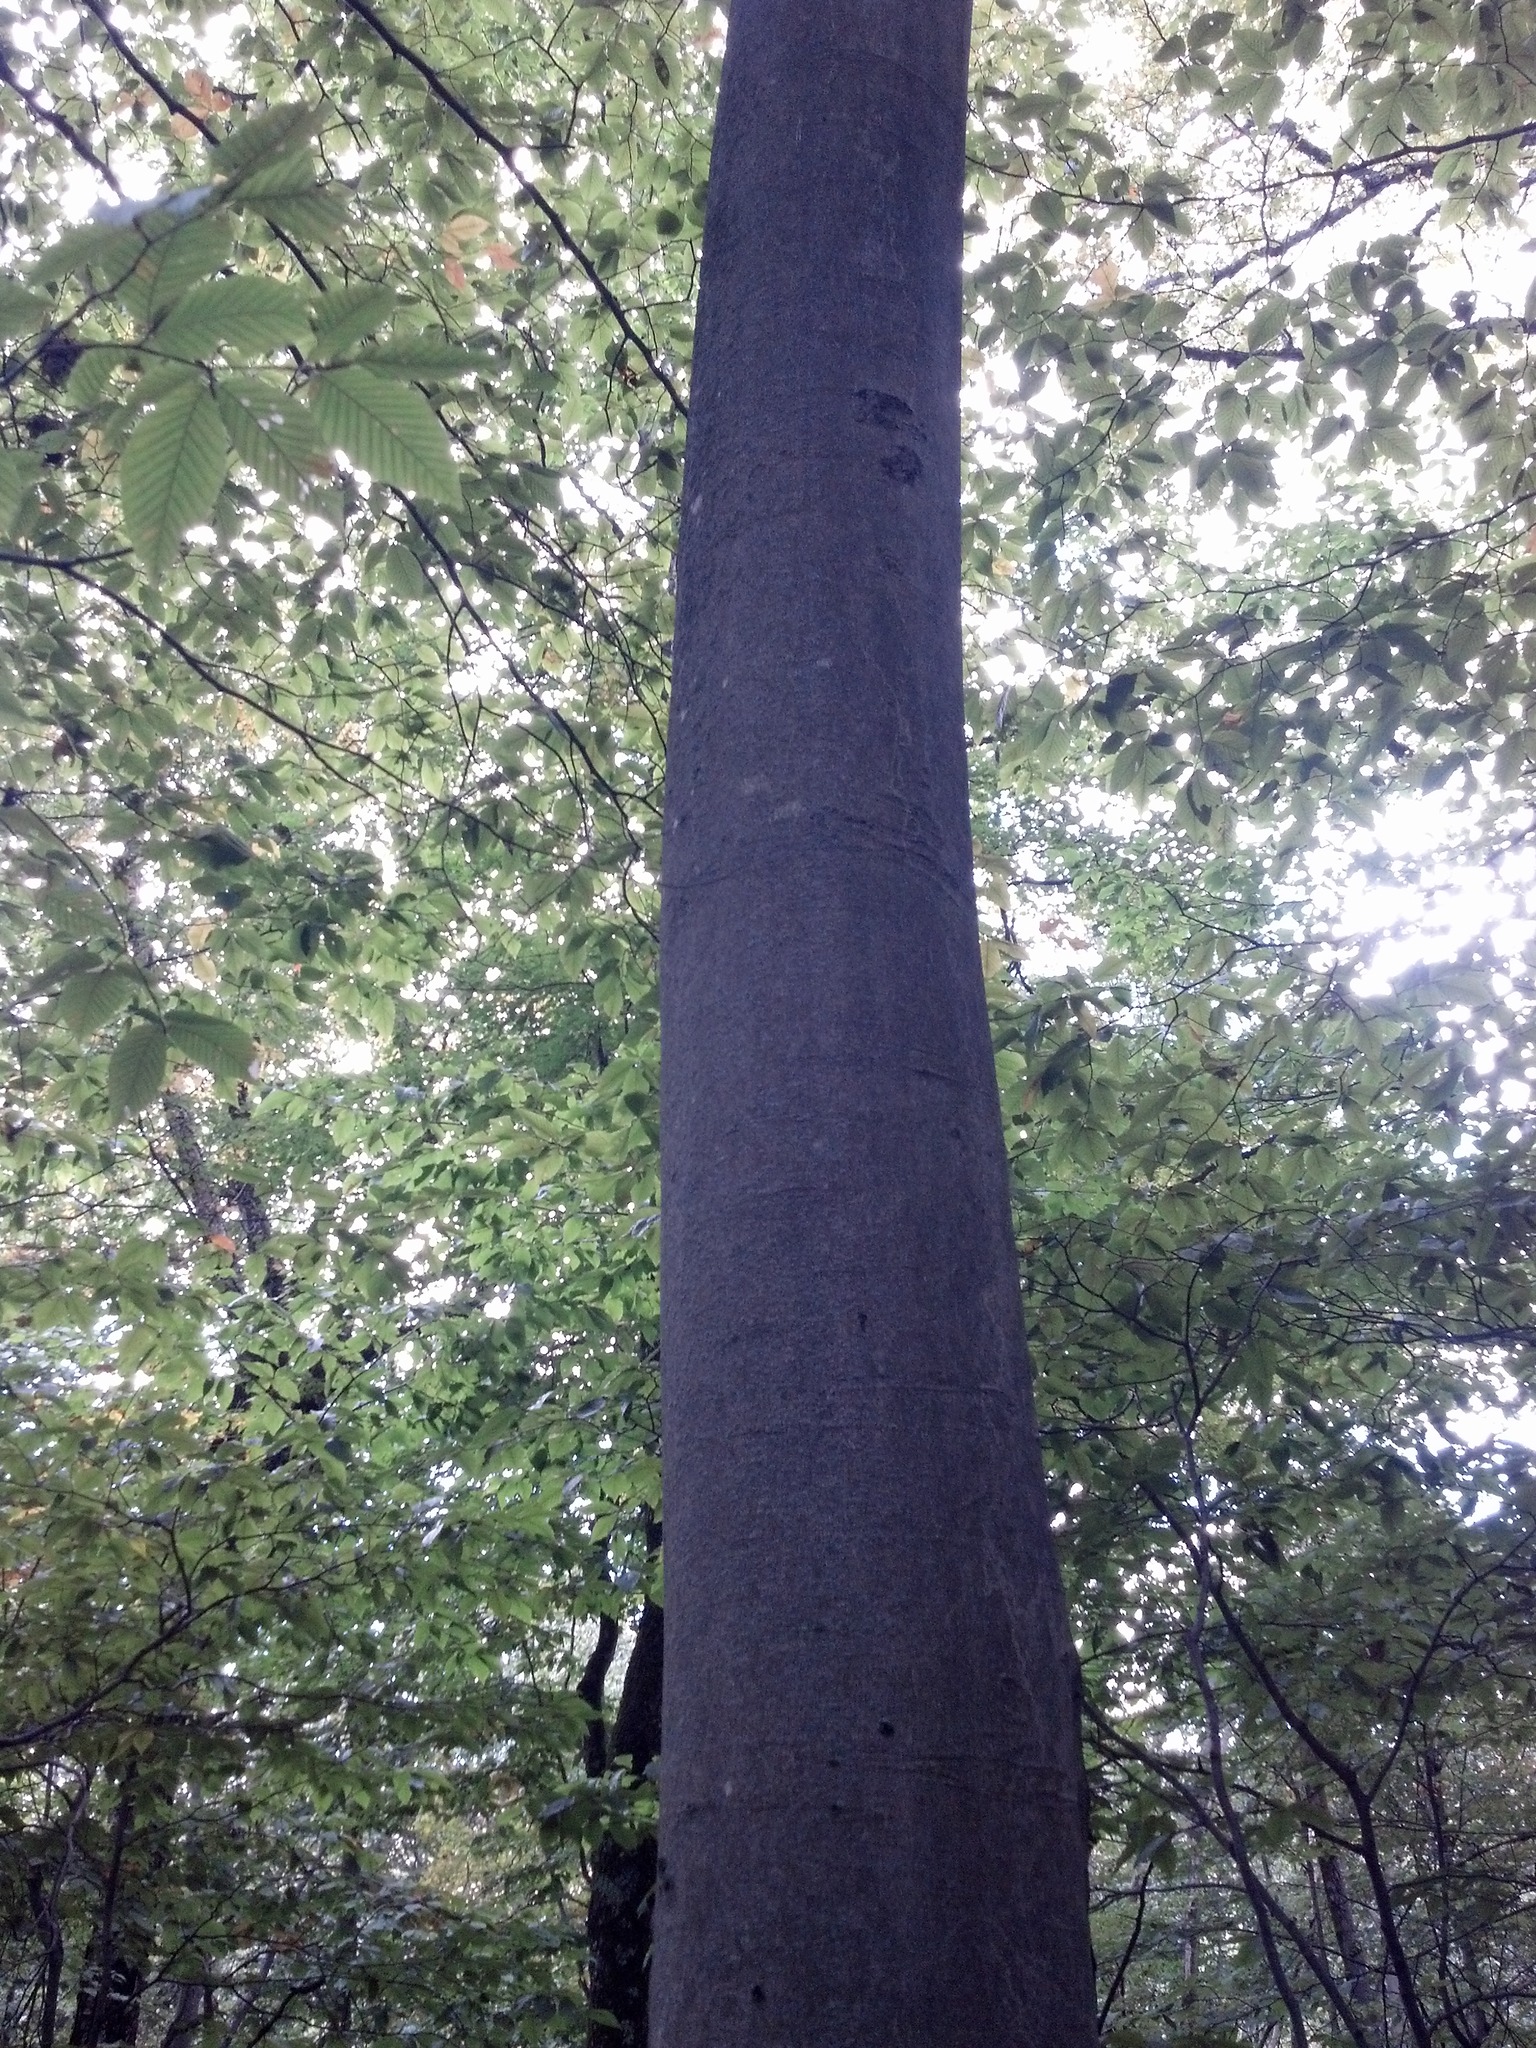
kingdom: Plantae
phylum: Tracheophyta
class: Magnoliopsida
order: Fagales
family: Fagaceae
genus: Fagus
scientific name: Fagus grandifolia
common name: American beech
